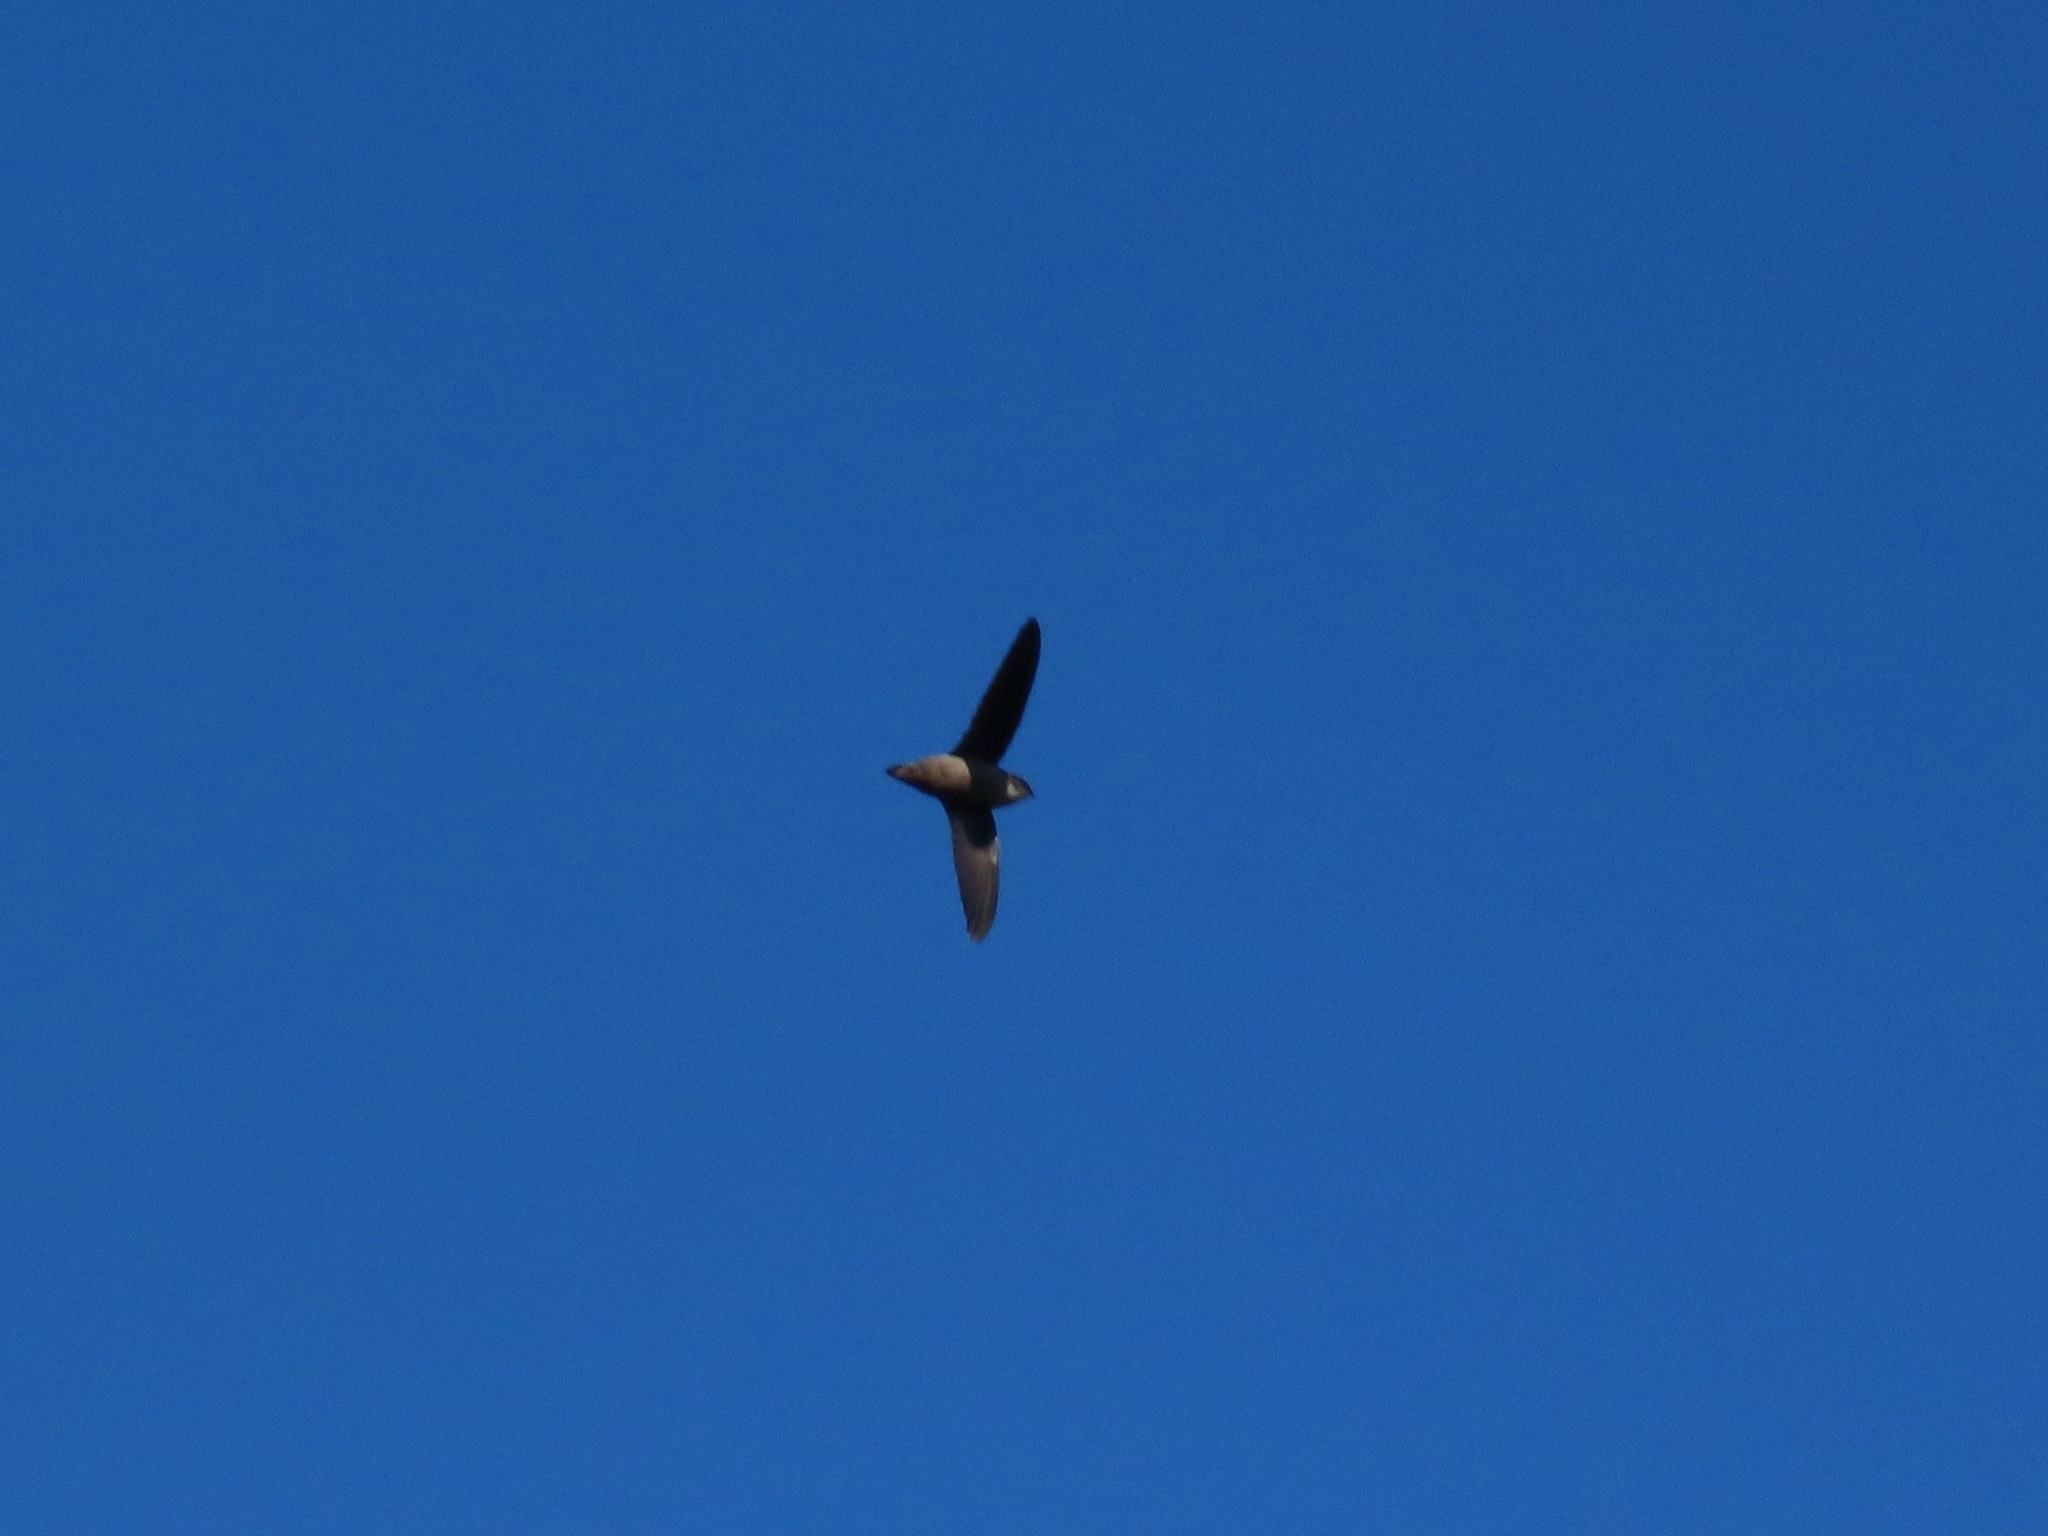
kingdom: Animalia
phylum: Chordata
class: Aves
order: Apodiformes
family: Apodidae
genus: Chaetura
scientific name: Chaetura vauxi
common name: Vaux's swift
